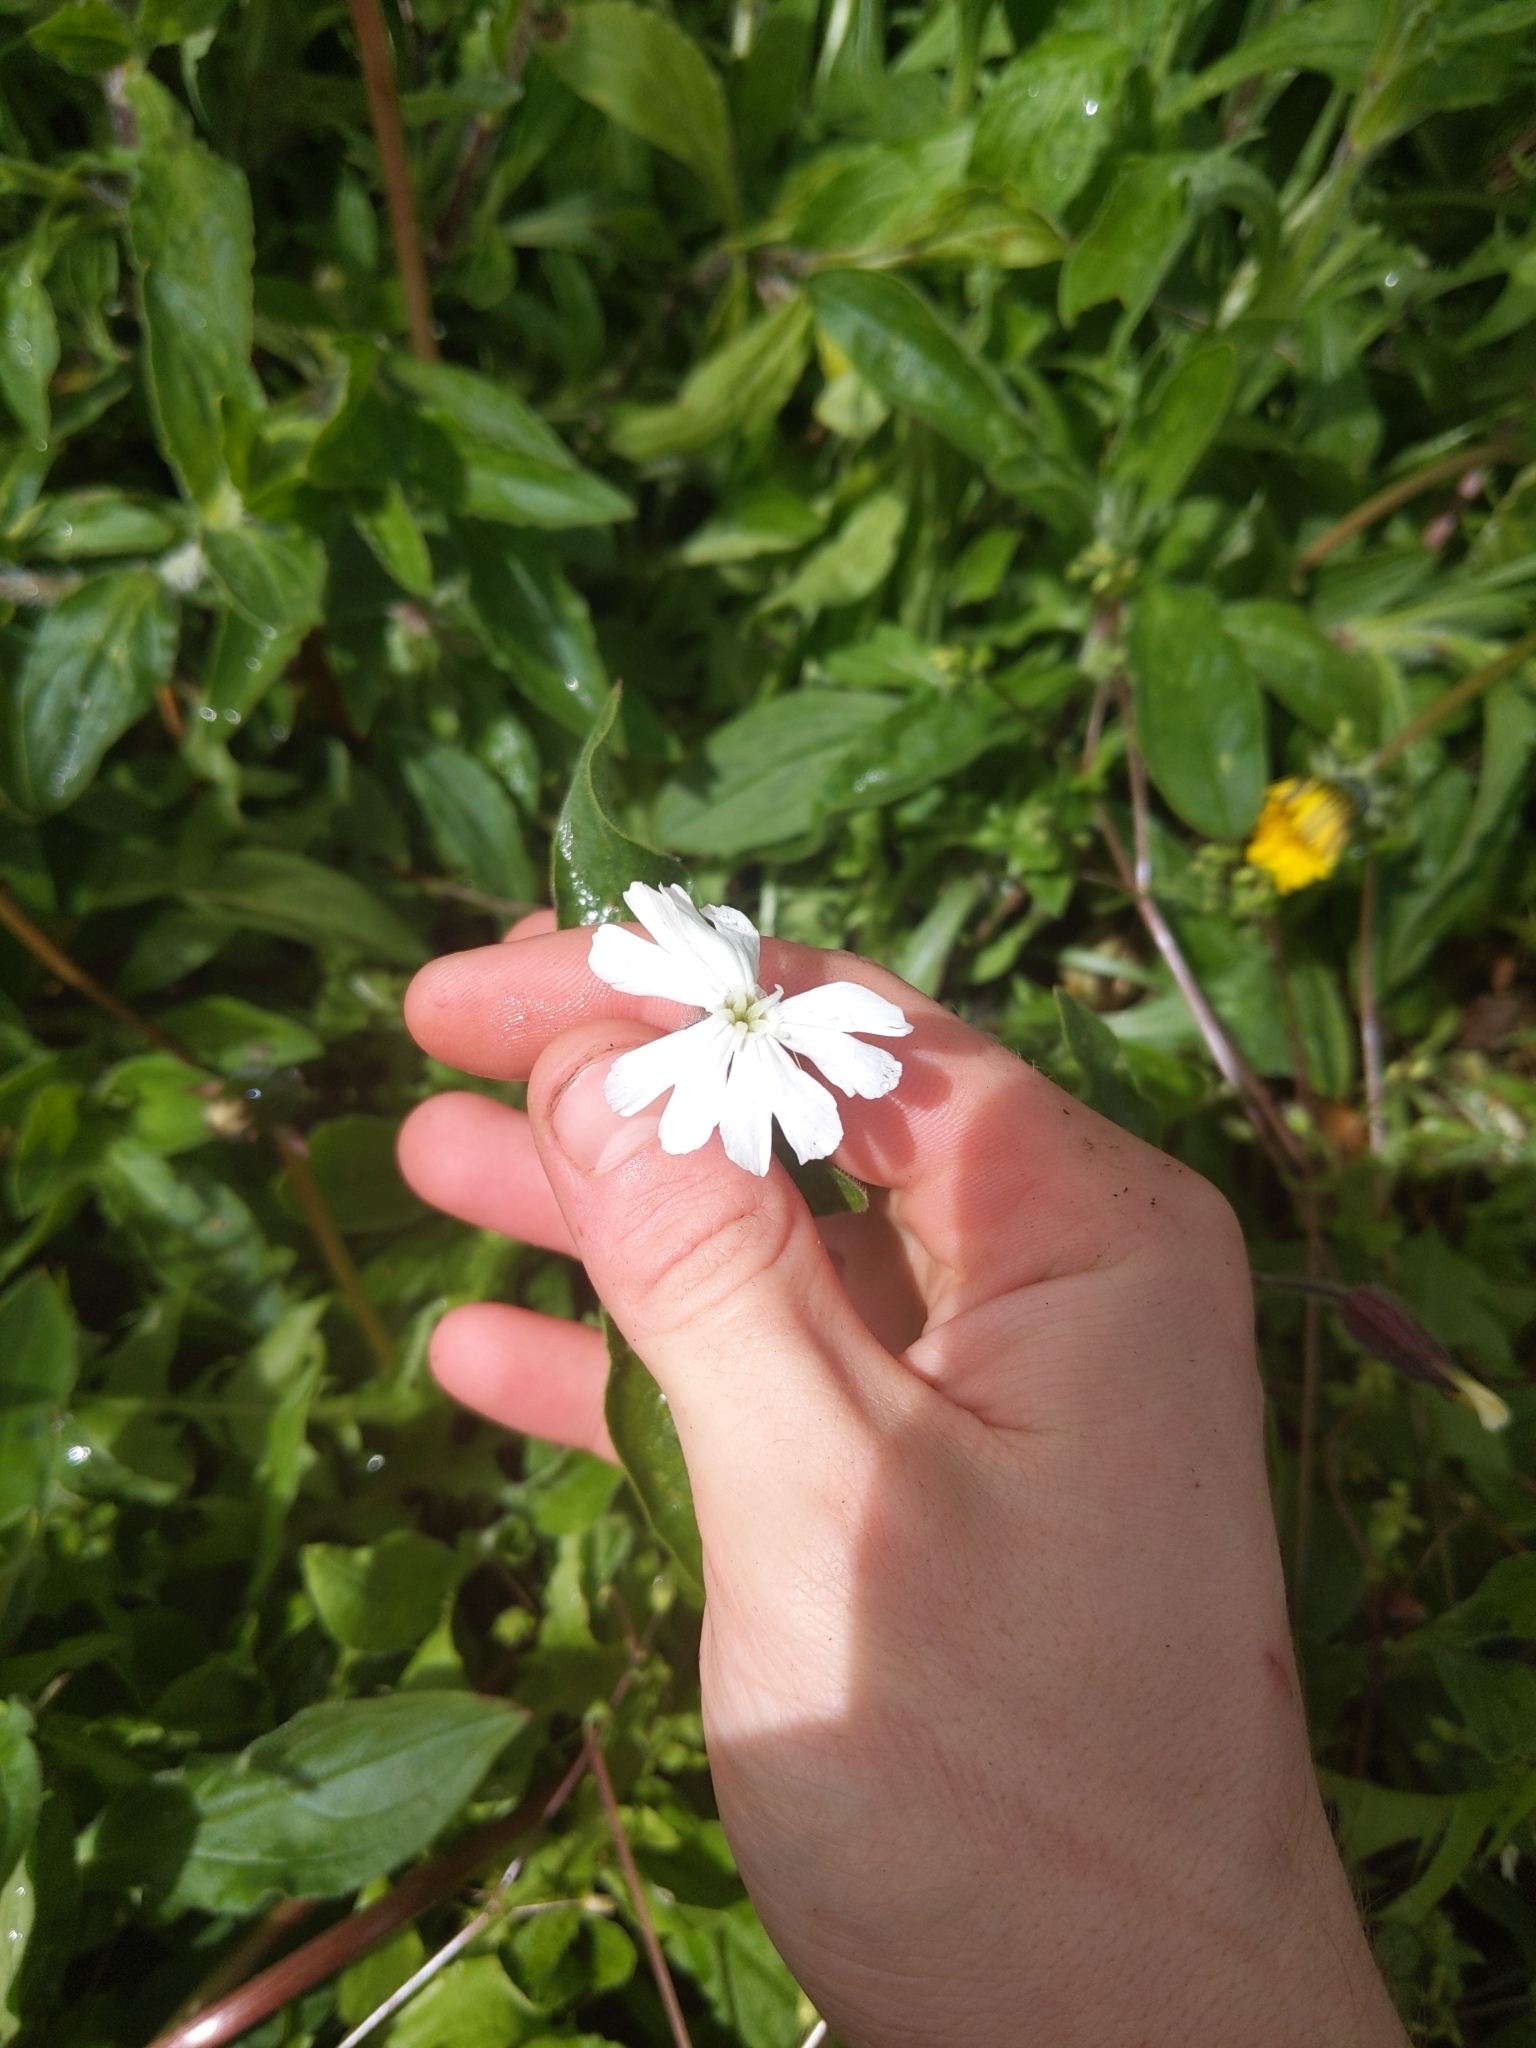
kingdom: Plantae
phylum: Tracheophyta
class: Magnoliopsida
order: Caryophyllales
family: Caryophyllaceae
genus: Silene
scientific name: Silene latifolia
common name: White campion
